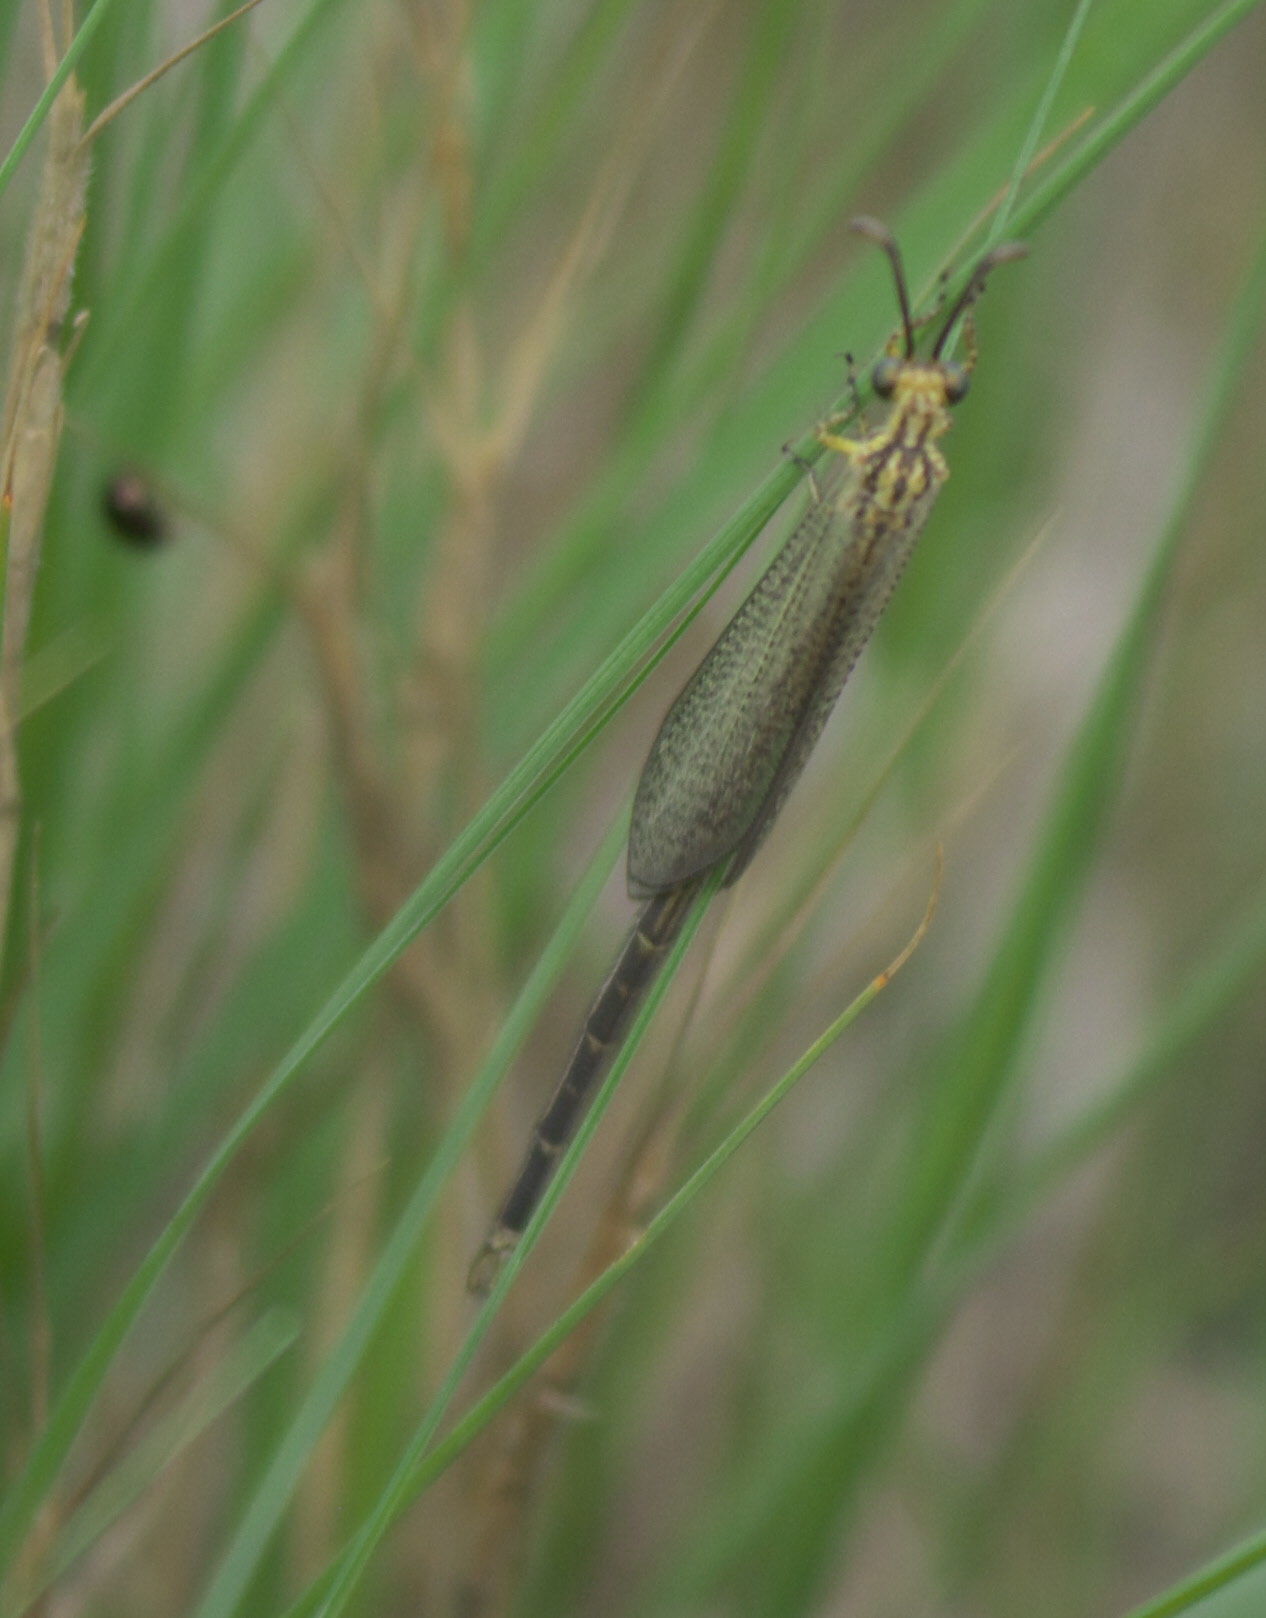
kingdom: Animalia
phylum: Arthropoda
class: Insecta
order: Neuroptera
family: Myrmeleontidae
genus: Brachynemurus
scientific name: Brachynemurus abdominalis
